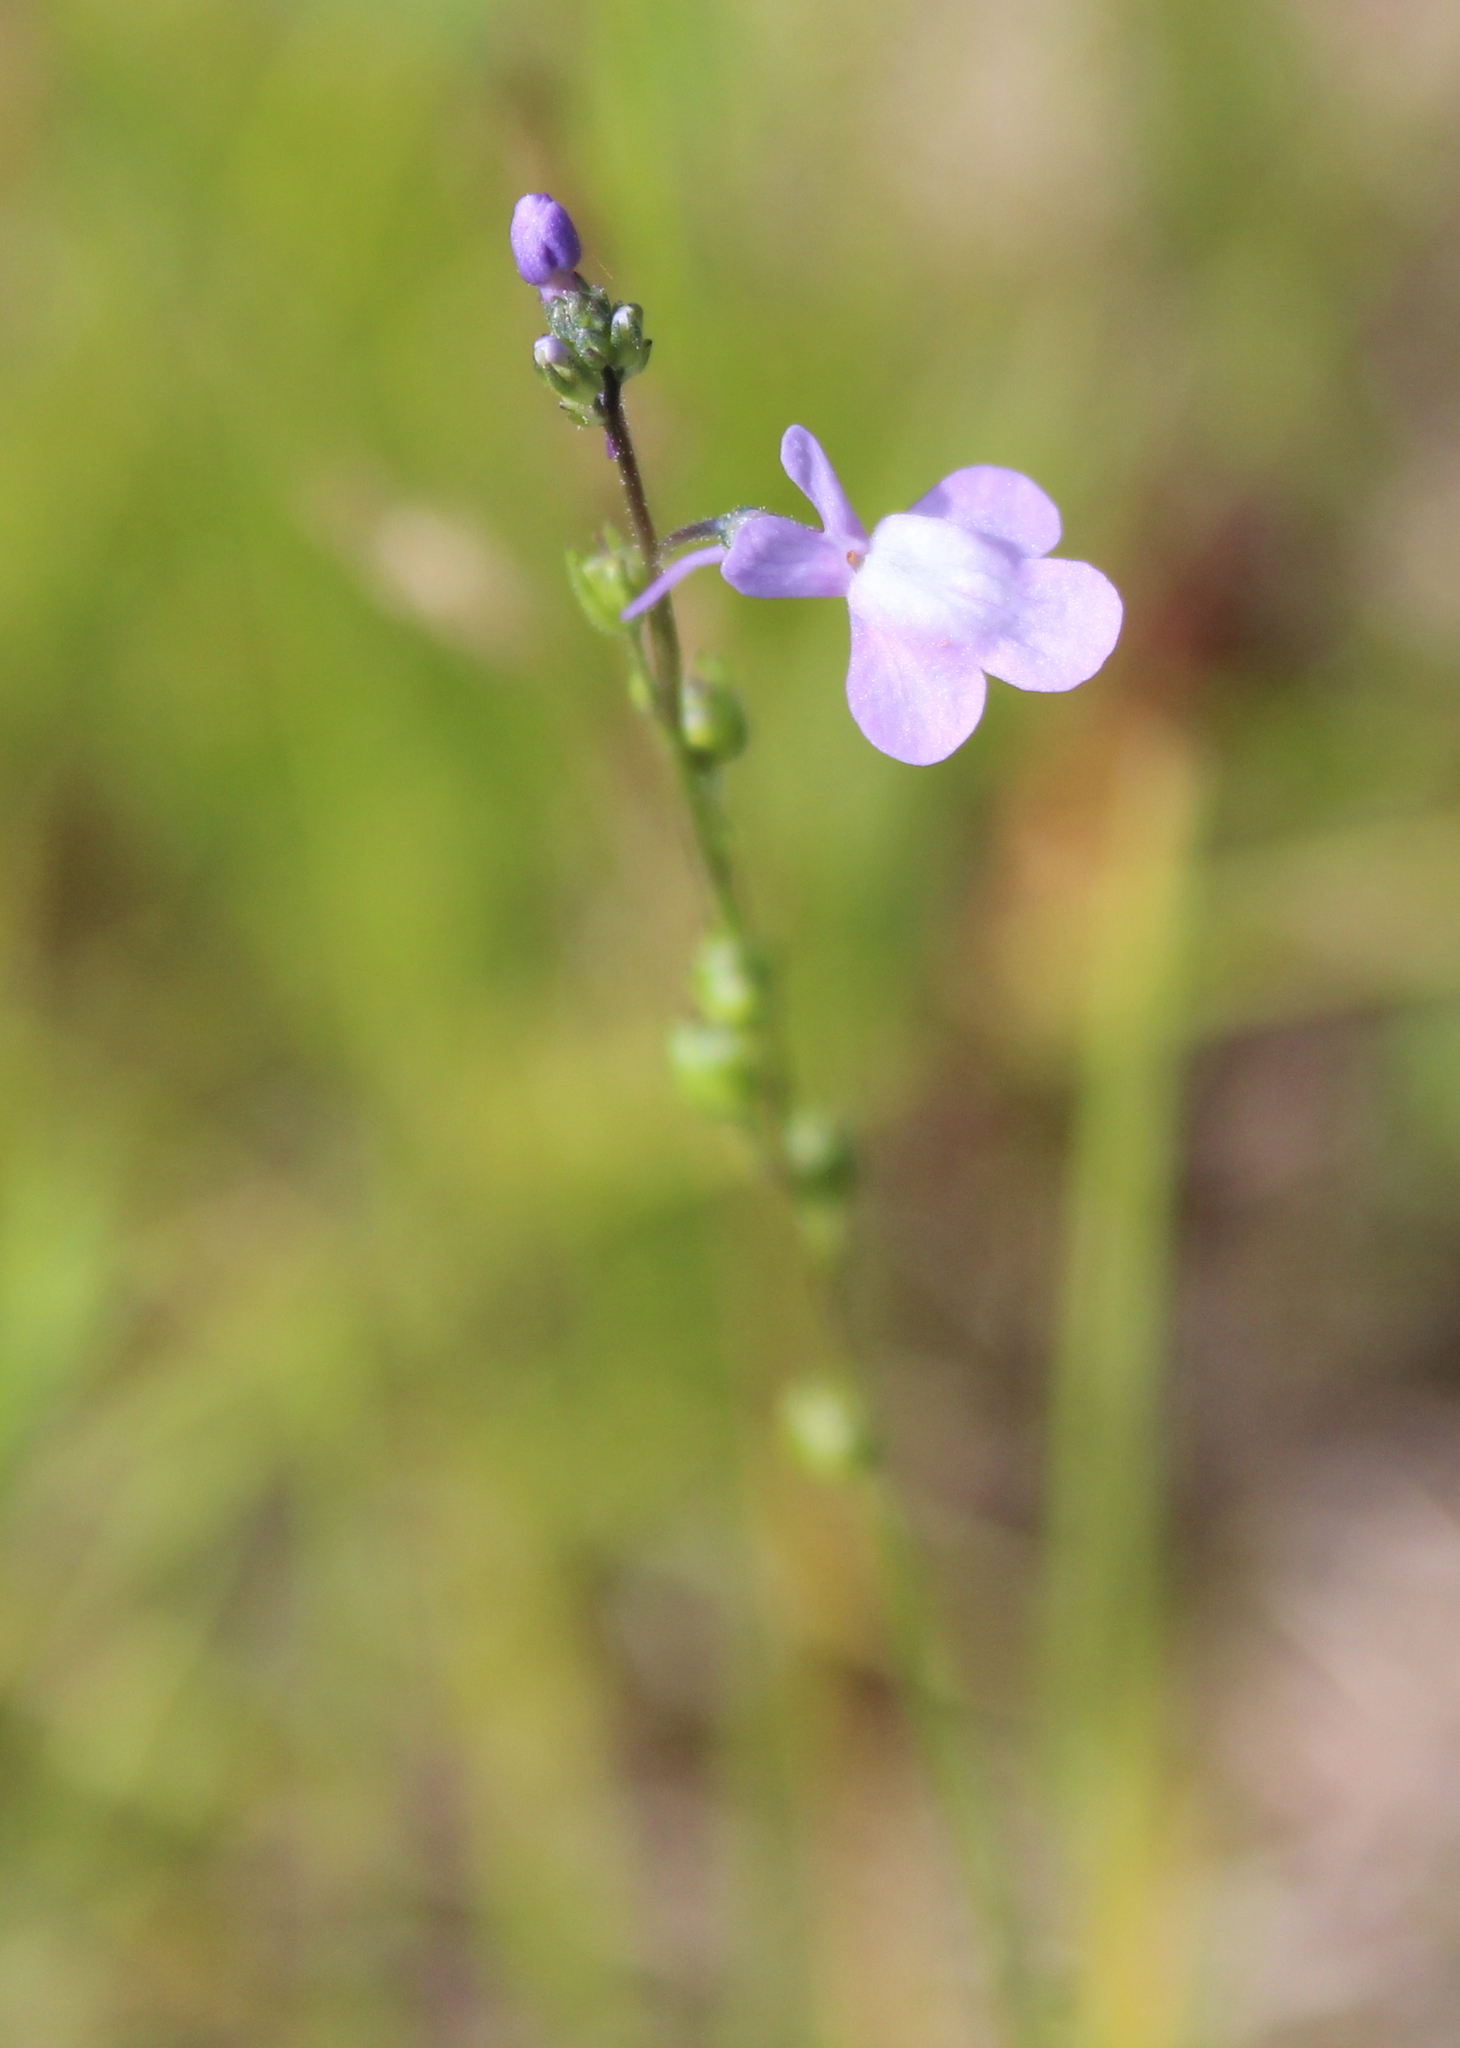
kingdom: Plantae
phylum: Tracheophyta
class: Magnoliopsida
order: Lamiales
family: Plantaginaceae
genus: Nuttallanthus
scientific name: Nuttallanthus canadensis
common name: Blue toadflax
